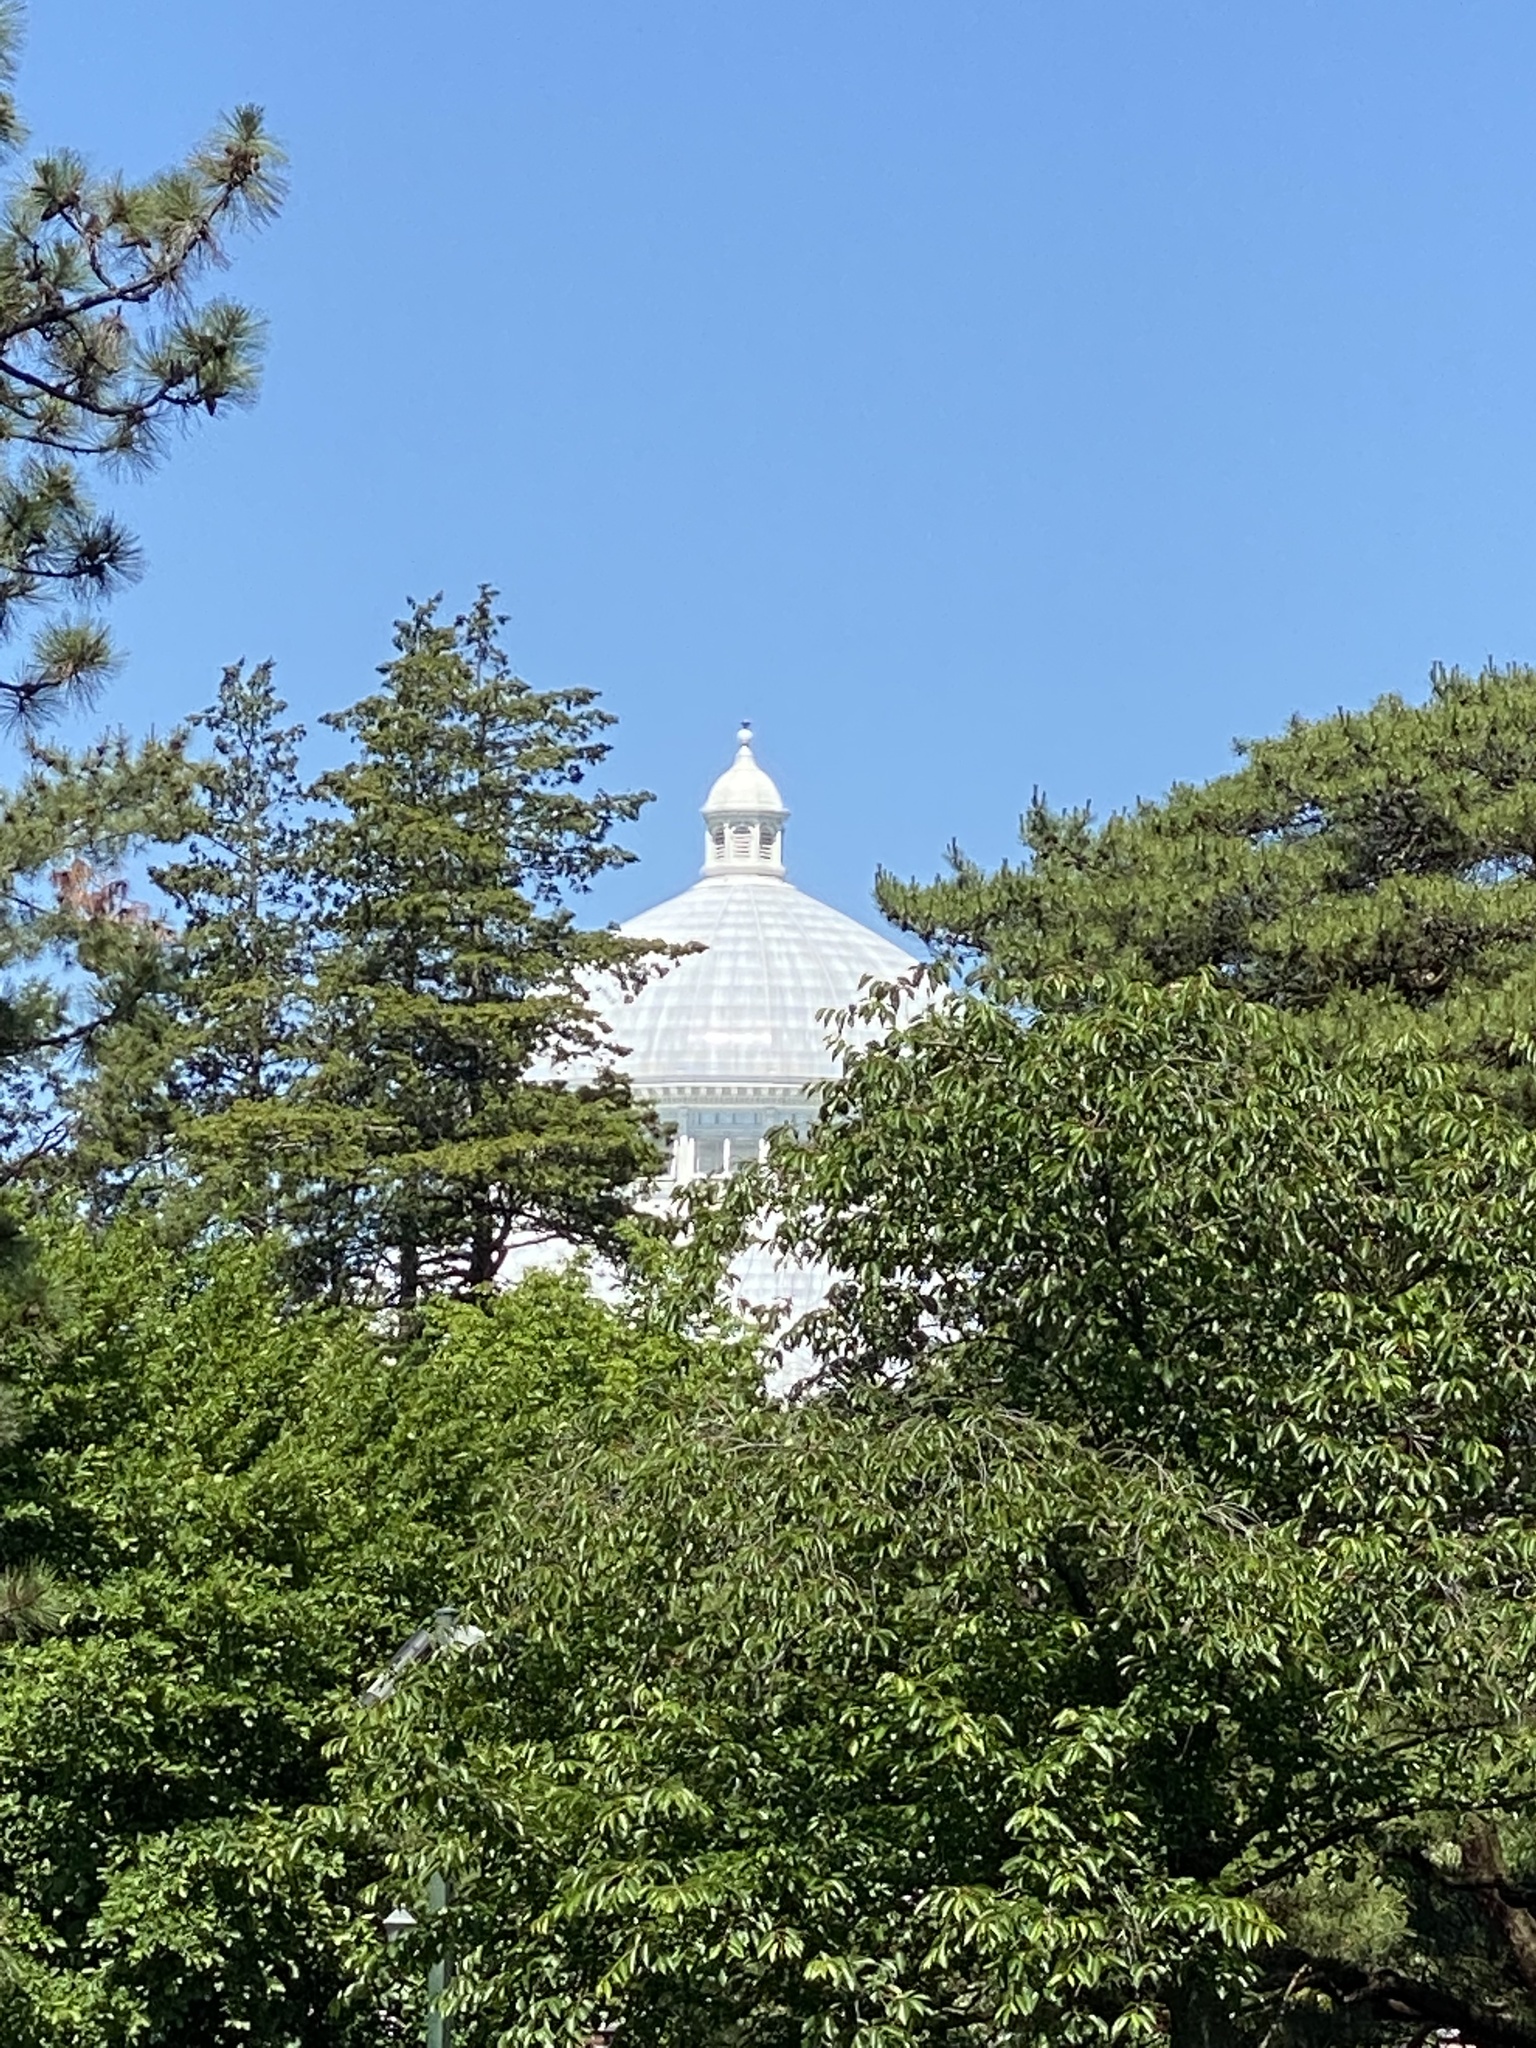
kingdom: Plantae
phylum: Tracheophyta
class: Magnoliopsida
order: Lamiales
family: Mazaceae
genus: Mazus
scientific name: Mazus pumilus
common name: Japanese mazus
